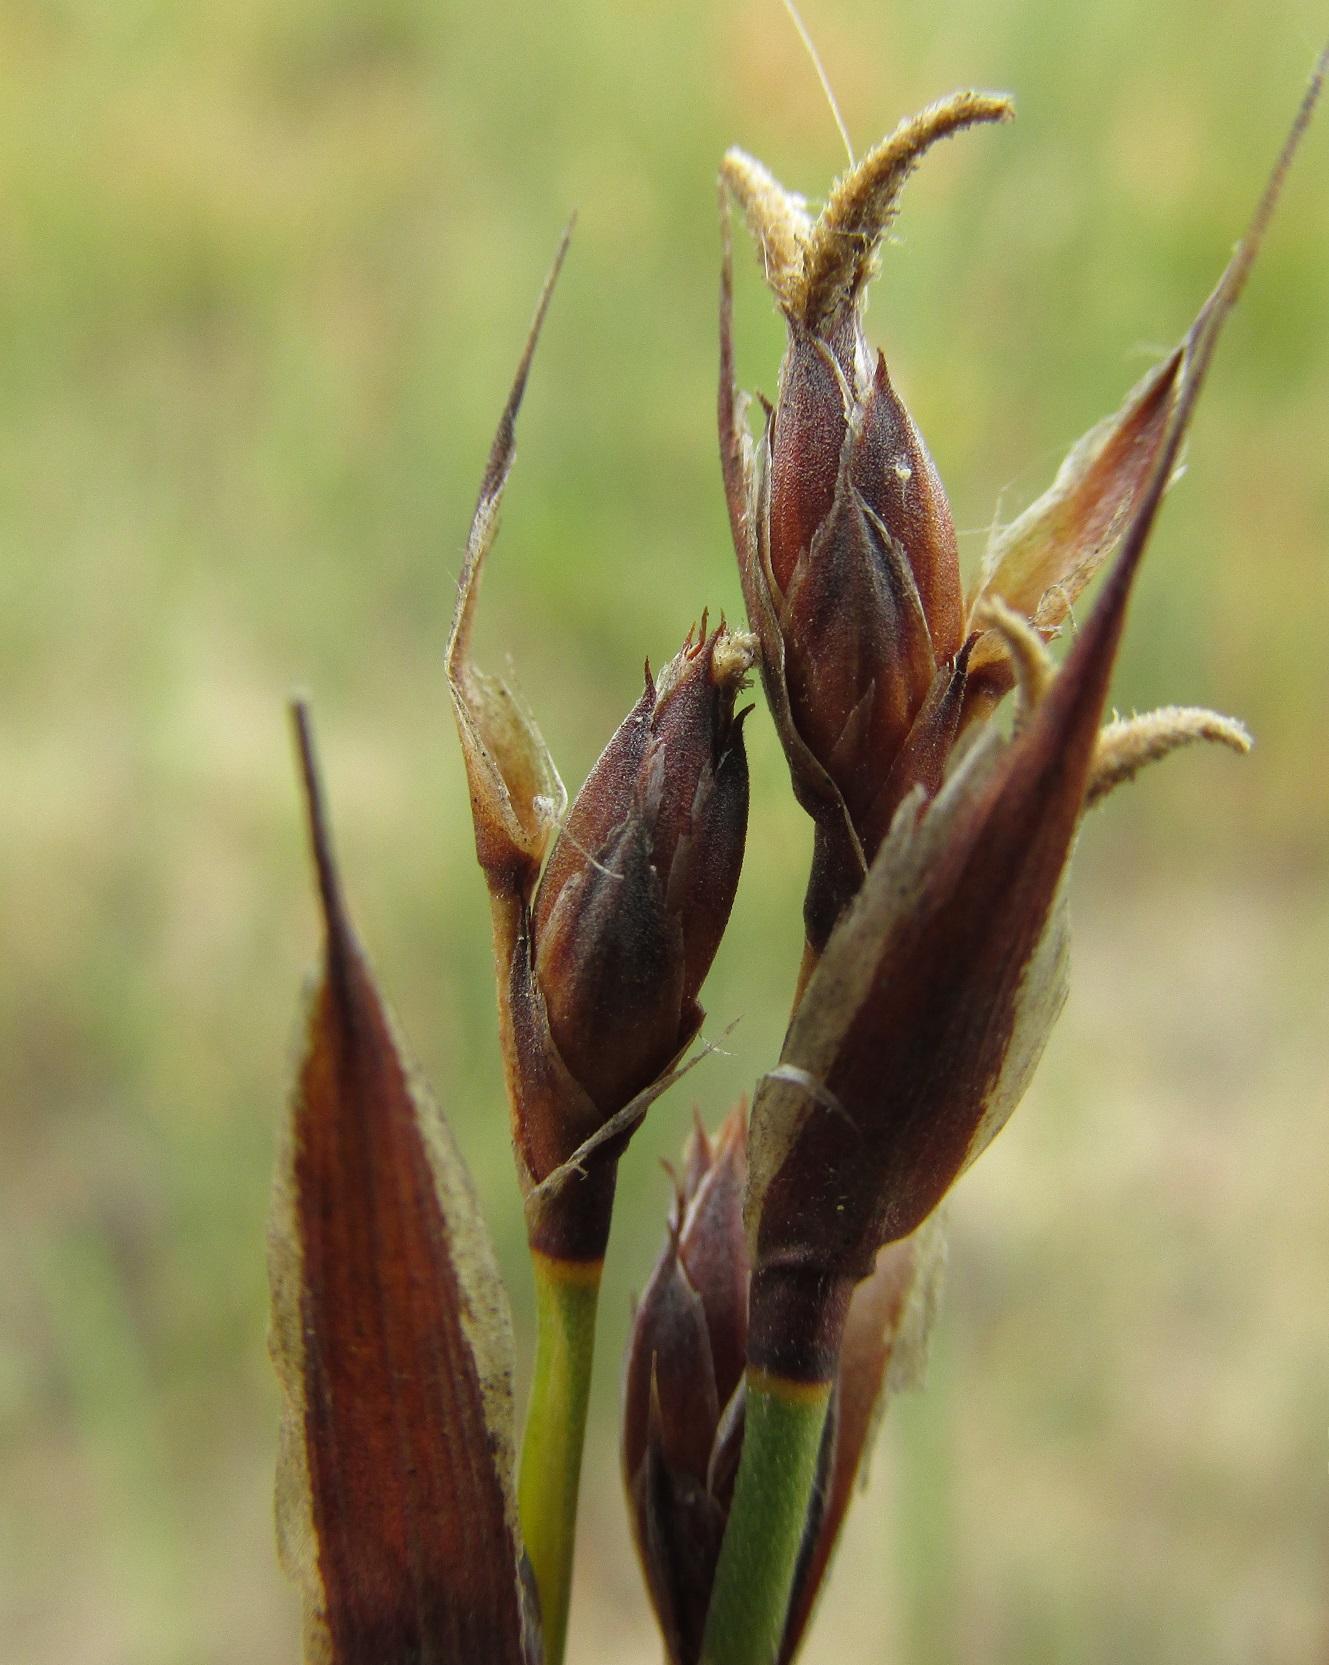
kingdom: Plantae
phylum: Tracheophyta
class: Liliopsida
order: Poales
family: Restionaceae
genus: Hypodiscus
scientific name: Hypodiscus rugosus
